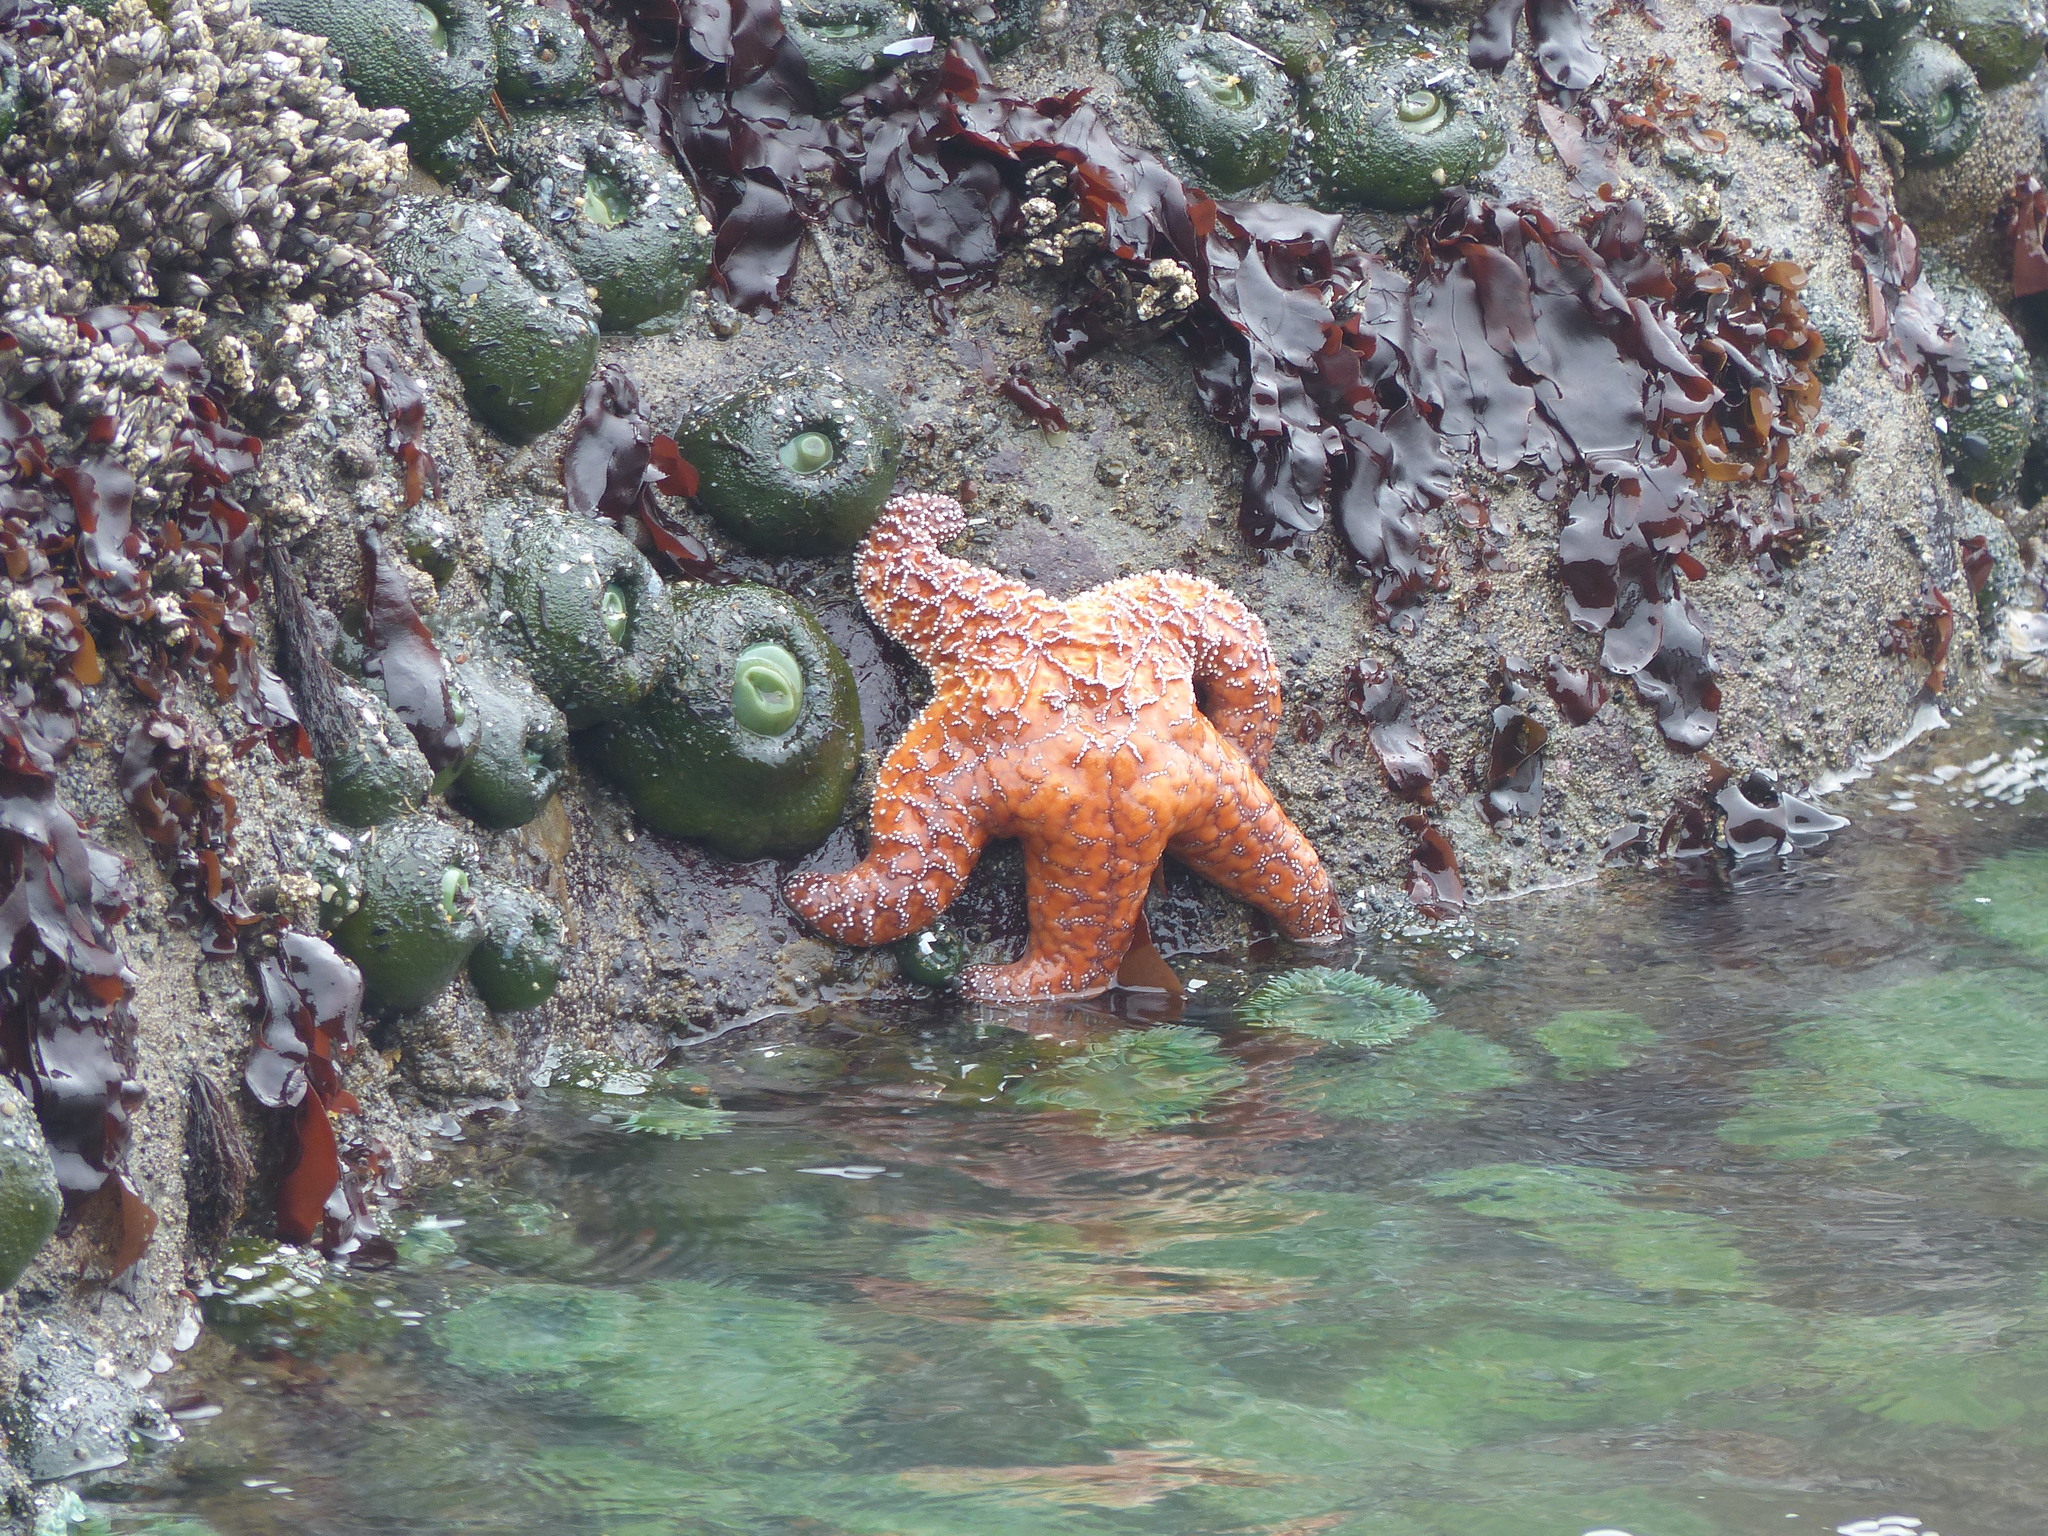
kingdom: Animalia
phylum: Echinodermata
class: Asteroidea
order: Forcipulatida
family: Asteriidae
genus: Pisaster
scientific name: Pisaster ochraceus
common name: Ochre stars
